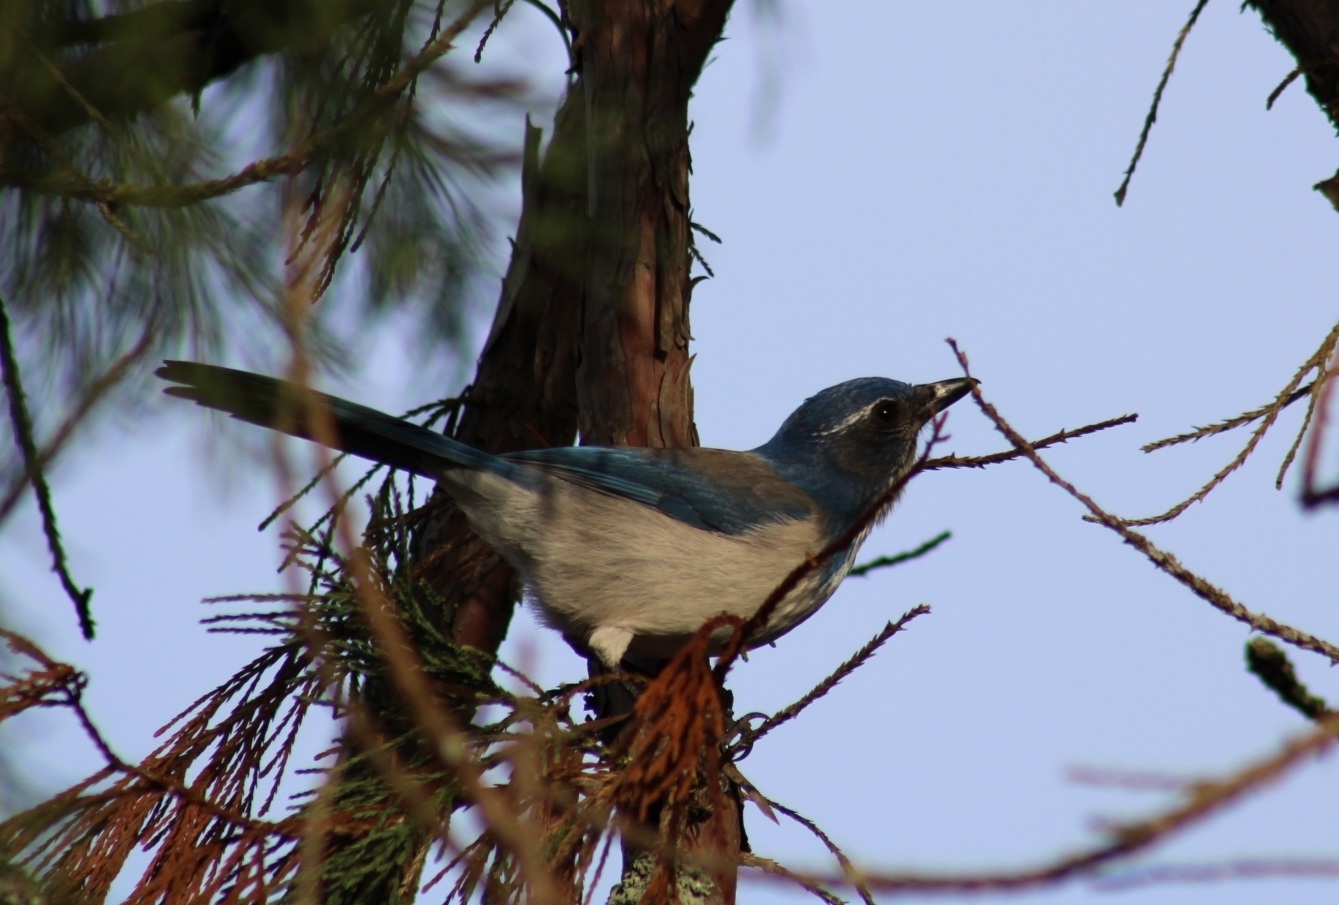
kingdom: Animalia
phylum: Chordata
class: Aves
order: Passeriformes
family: Corvidae
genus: Aphelocoma
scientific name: Aphelocoma californica
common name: California scrub-jay
